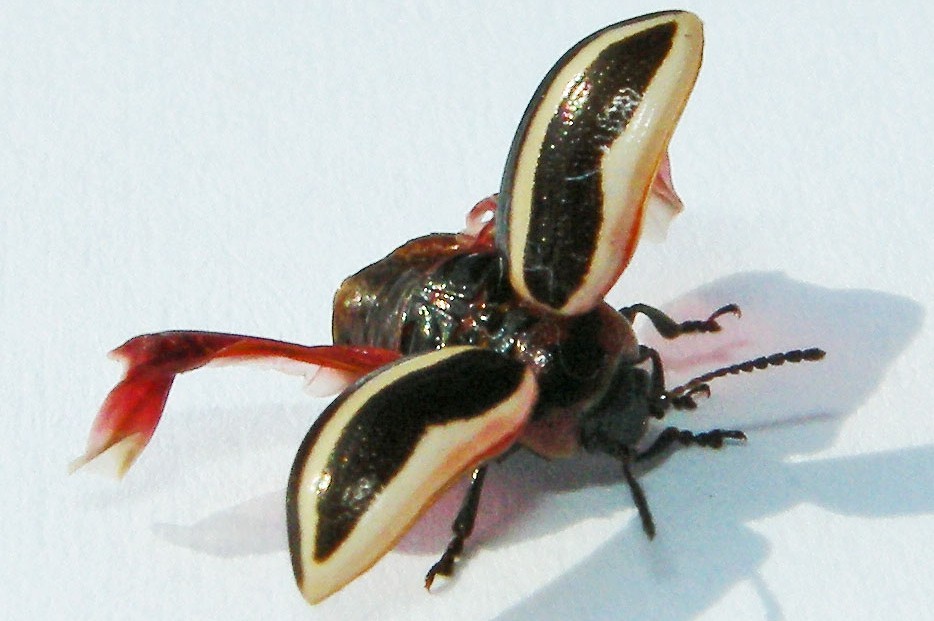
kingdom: Animalia
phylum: Arthropoda
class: Insecta
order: Coleoptera
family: Chrysomelidae
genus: Calligrapha
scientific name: Calligrapha californica
